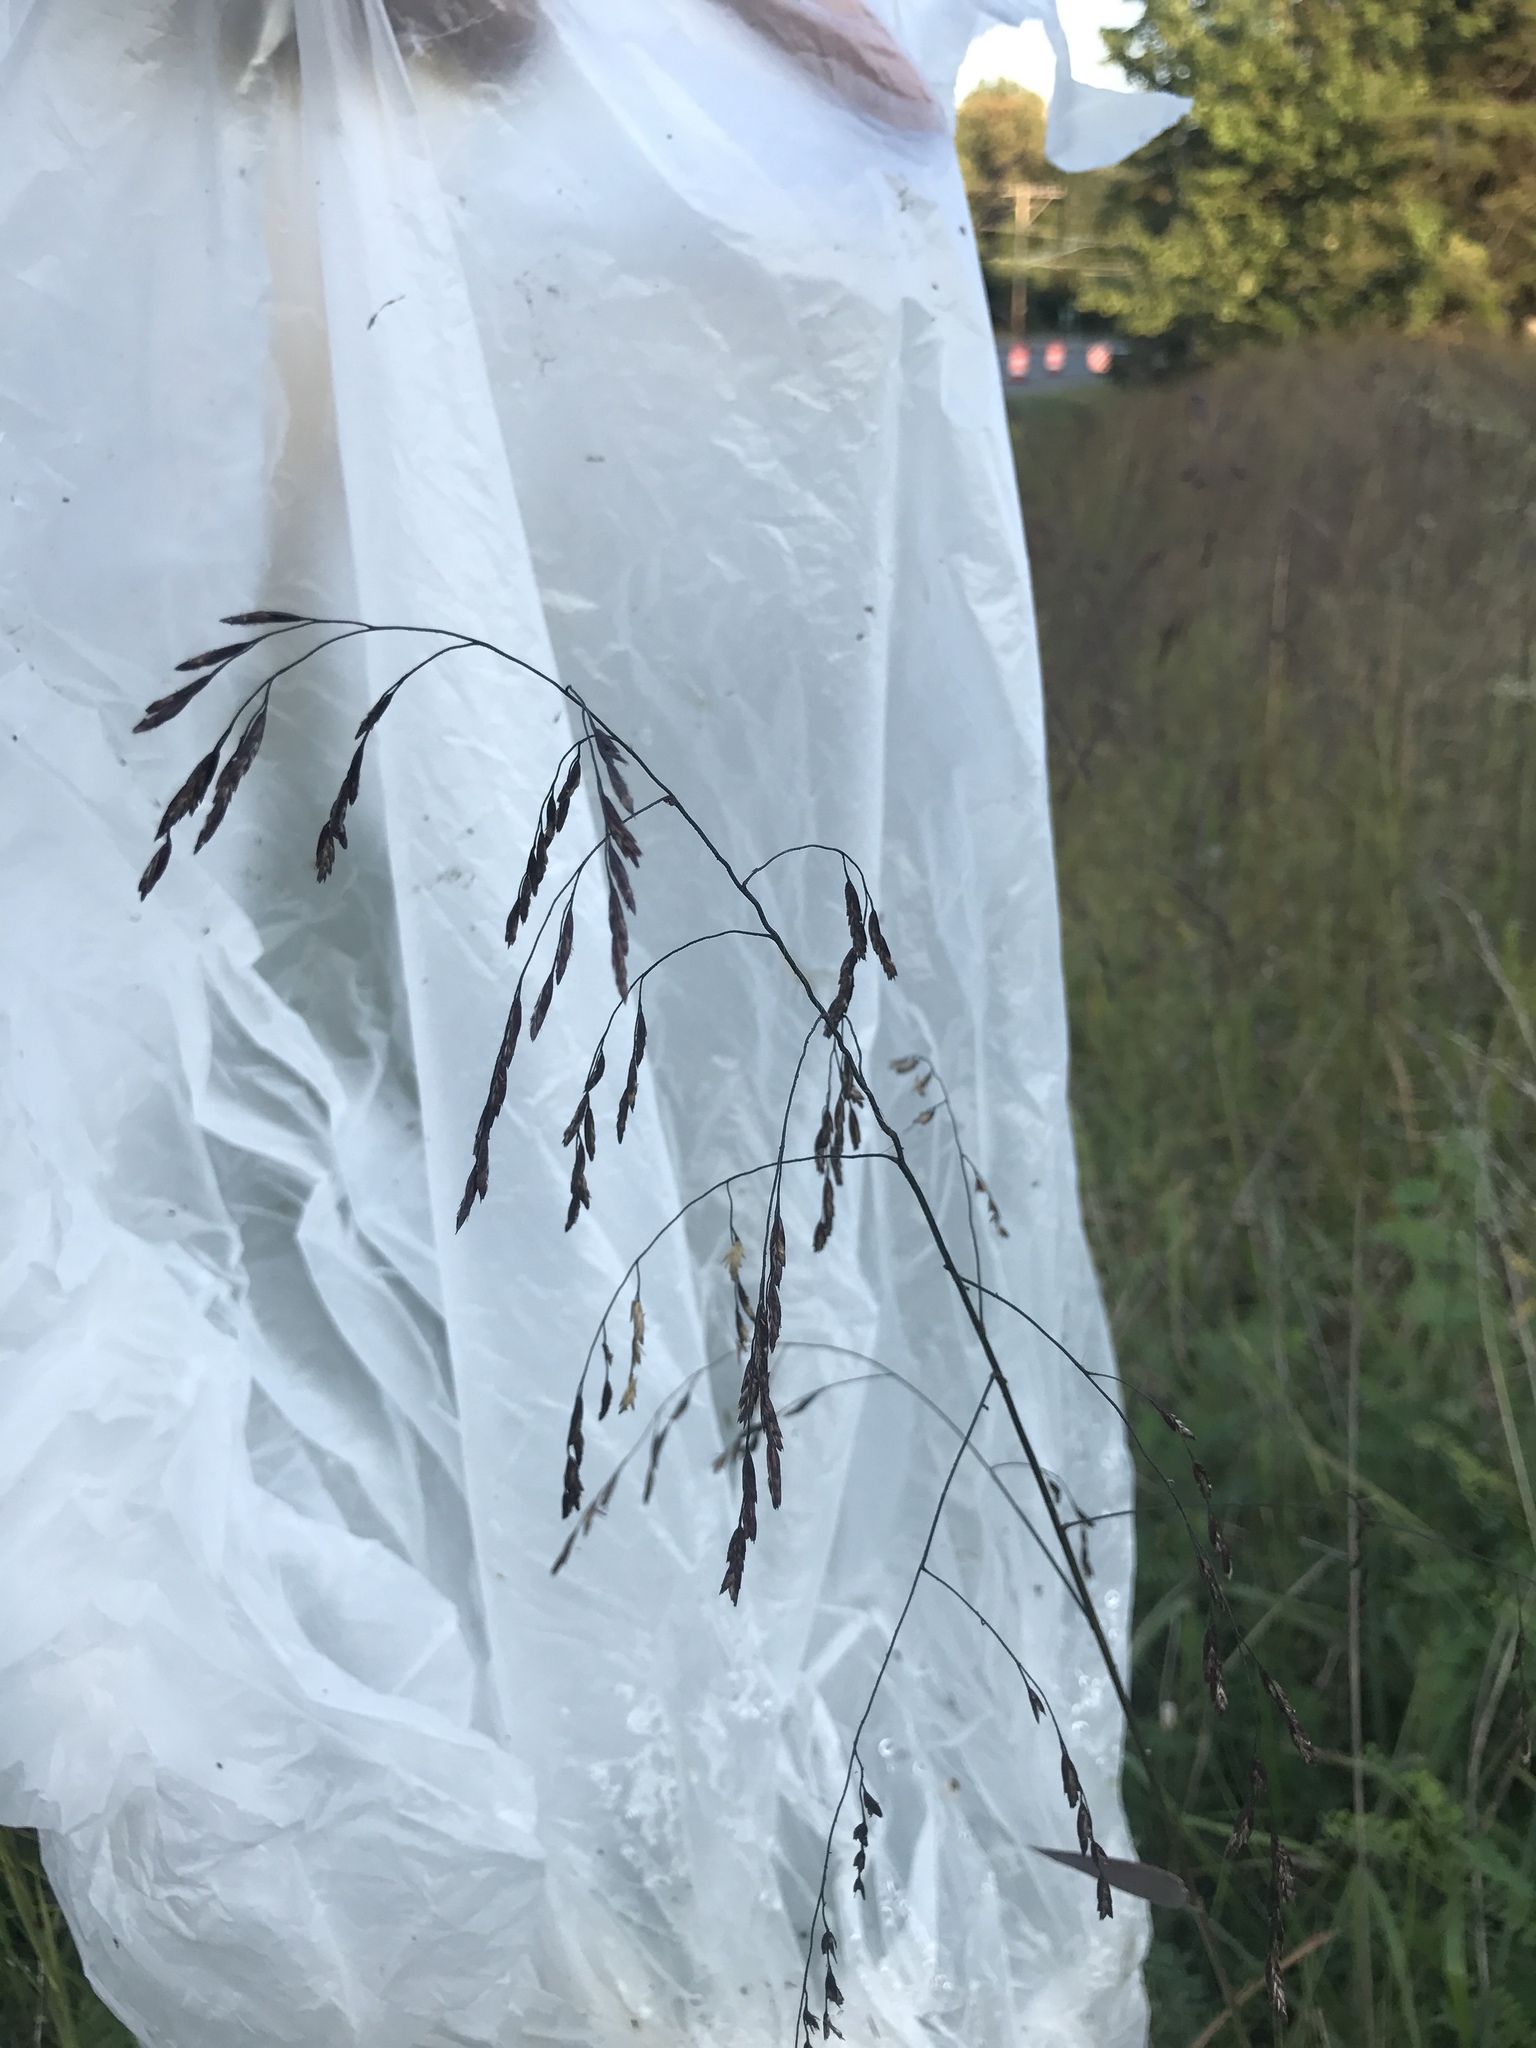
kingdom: Plantae
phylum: Tracheophyta
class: Liliopsida
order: Poales
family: Poaceae
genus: Tridens
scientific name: Tridens flavus
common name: Purpletop
